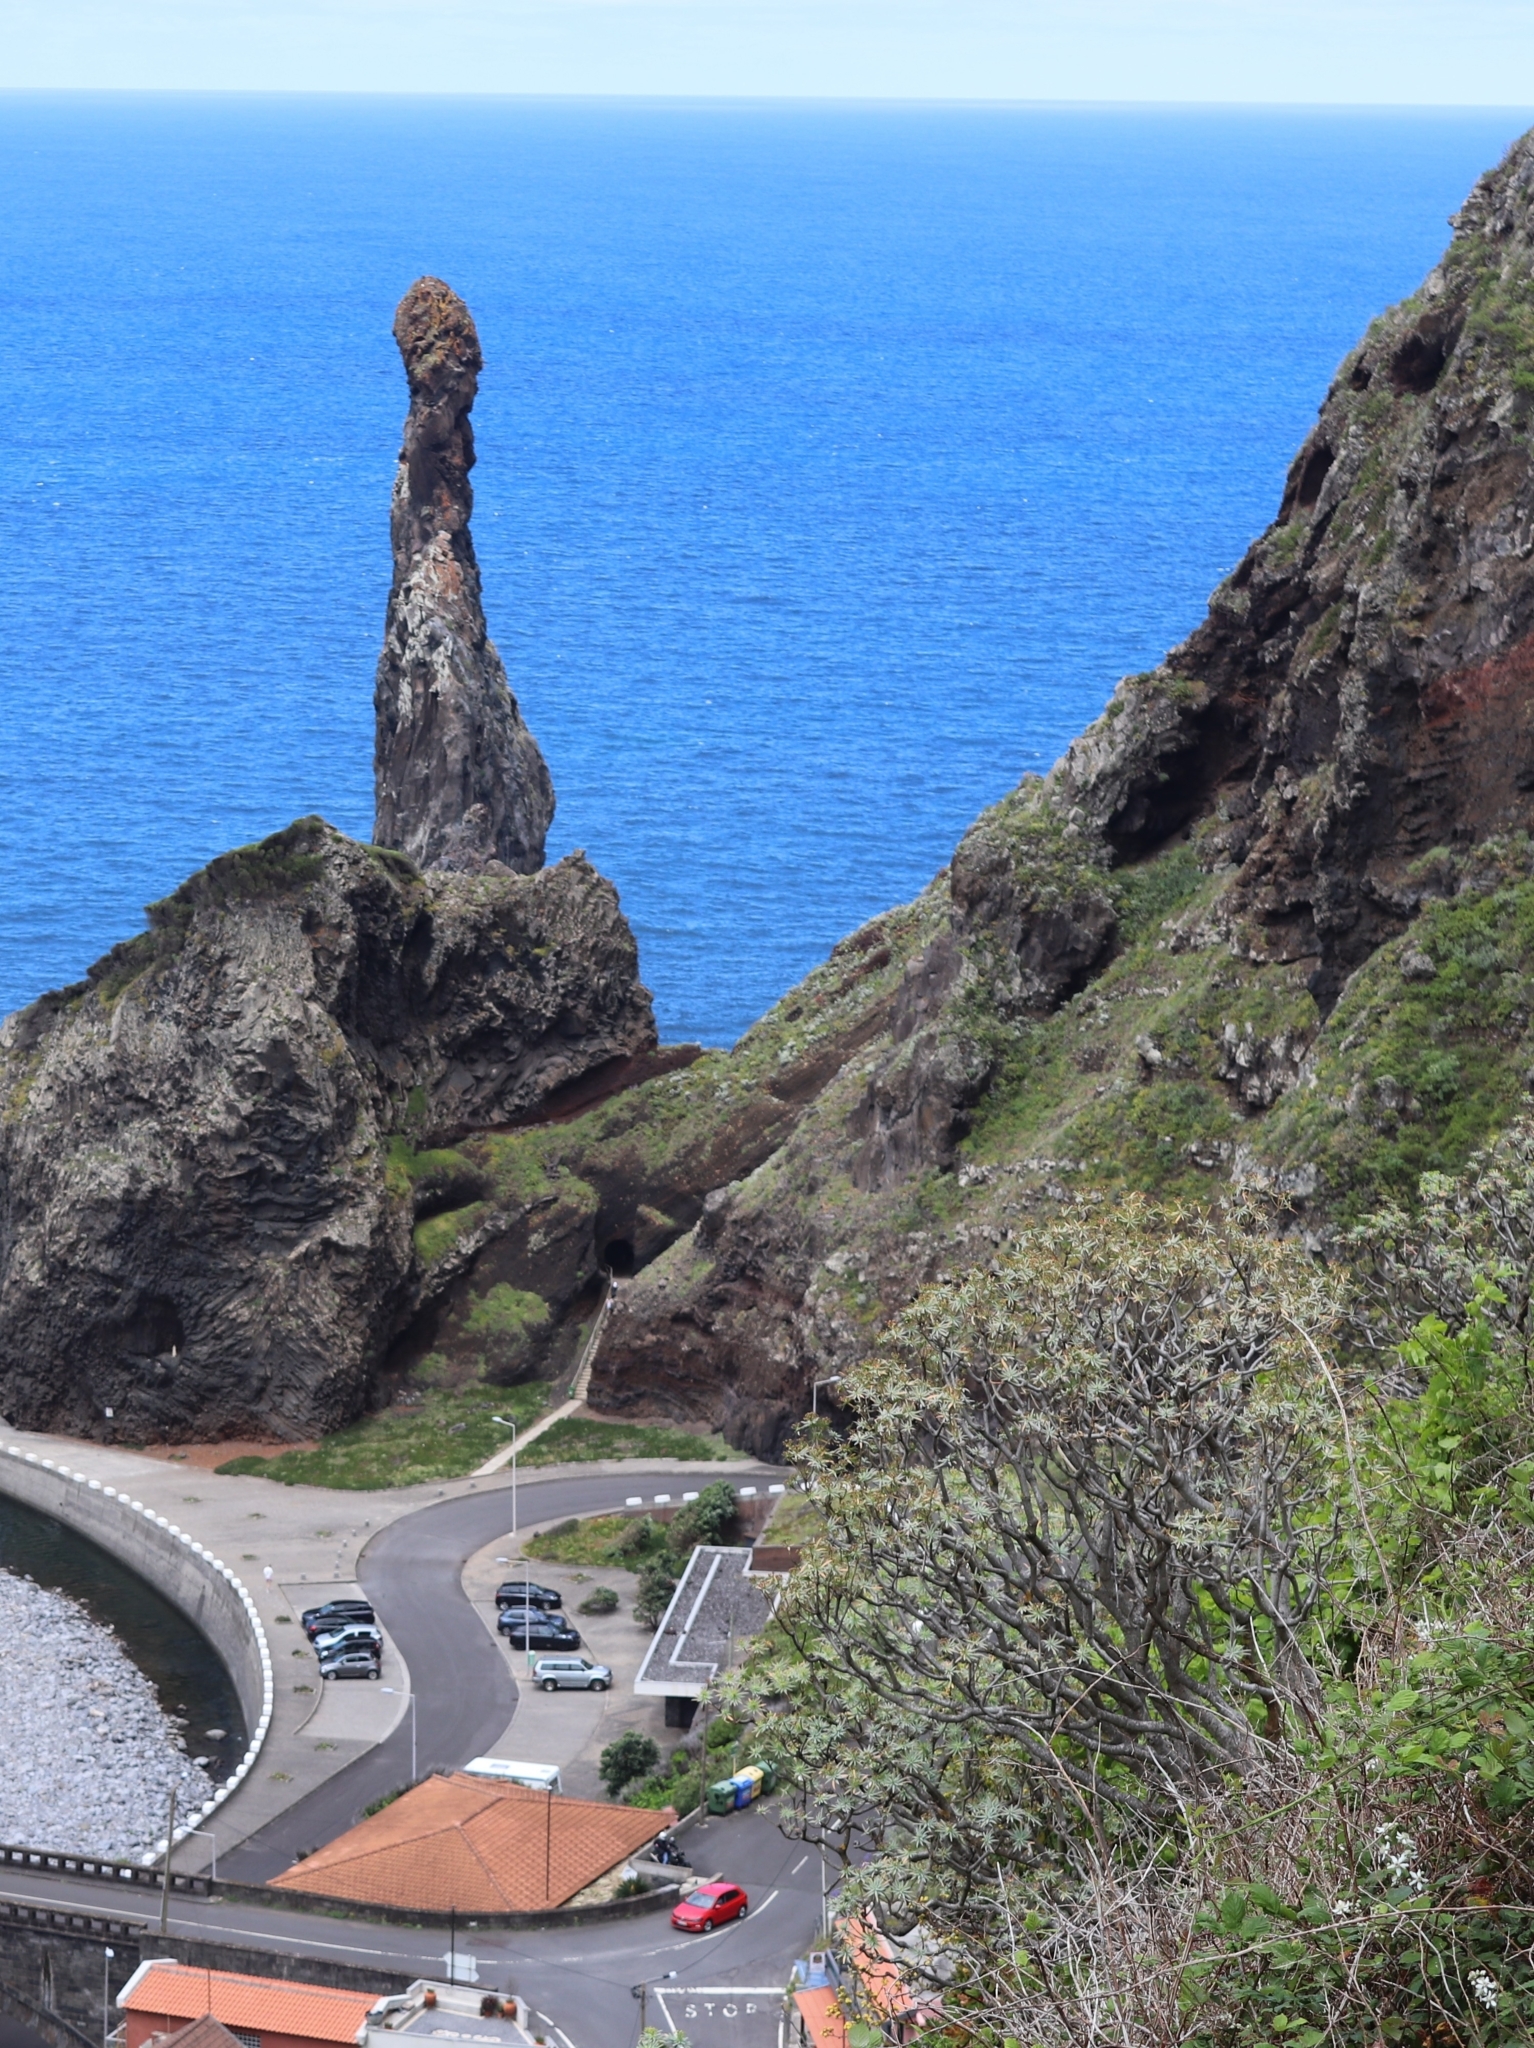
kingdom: Plantae
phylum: Tracheophyta
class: Magnoliopsida
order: Malpighiales
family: Euphorbiaceae
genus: Euphorbia
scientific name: Euphorbia piscatoria
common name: Fish-stunning spurge
